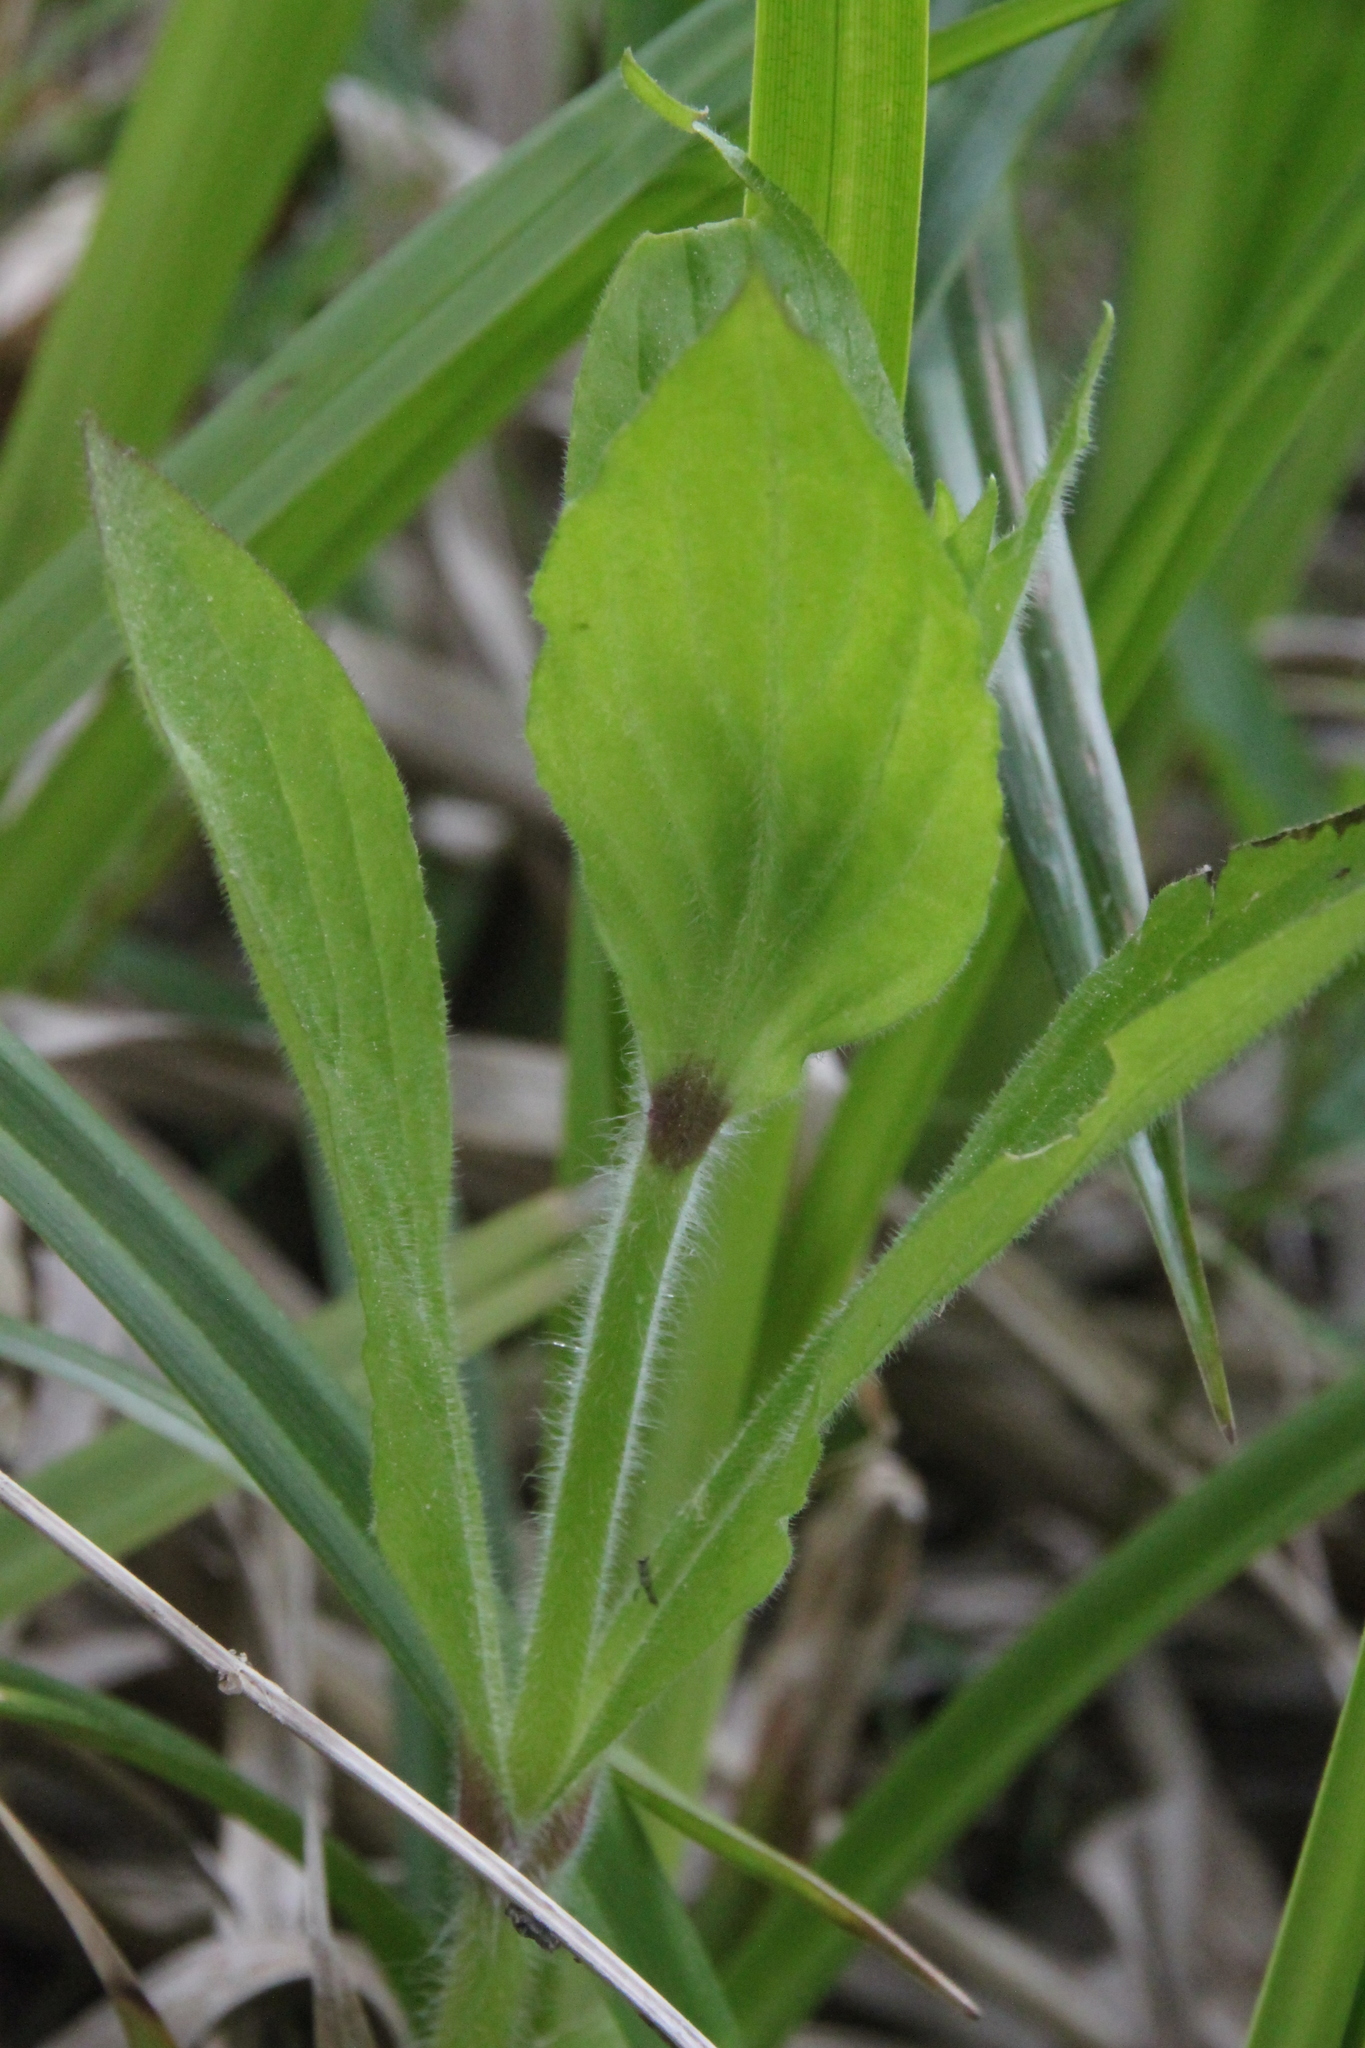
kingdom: Plantae
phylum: Tracheophyta
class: Magnoliopsida
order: Caryophyllales
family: Caryophyllaceae
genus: Silene
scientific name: Silene dioica
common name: Red campion
